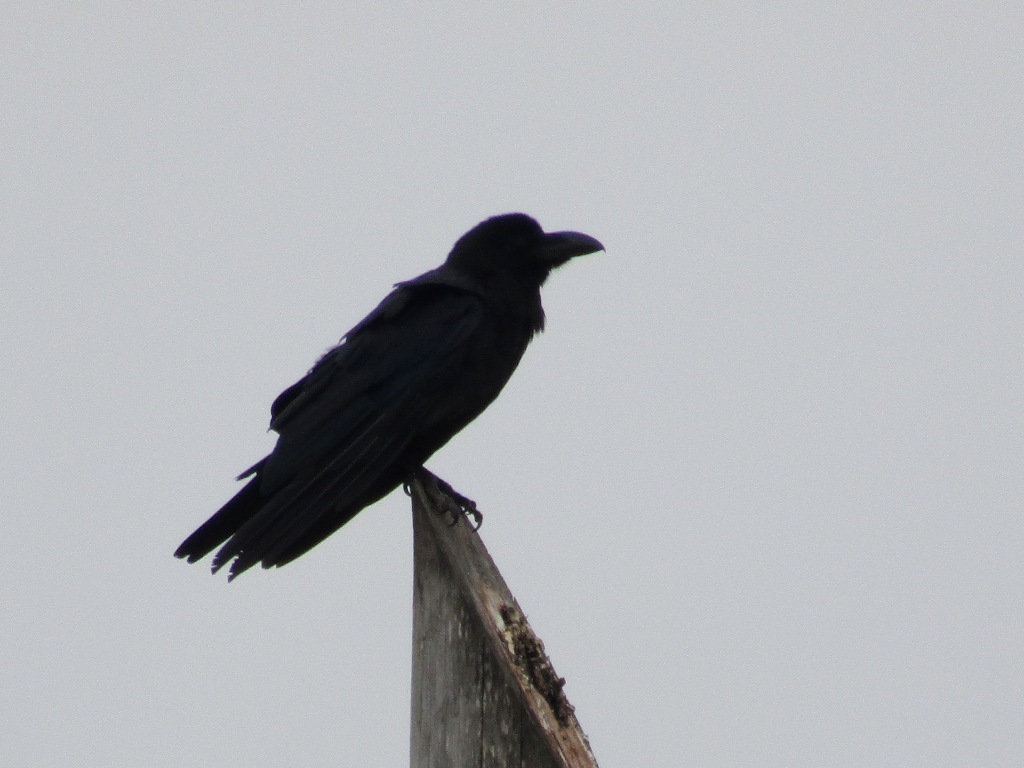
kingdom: Animalia
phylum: Chordata
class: Aves
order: Passeriformes
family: Corvidae
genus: Corvus
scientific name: Corvus macrorhynchos
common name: Large-billed crow
